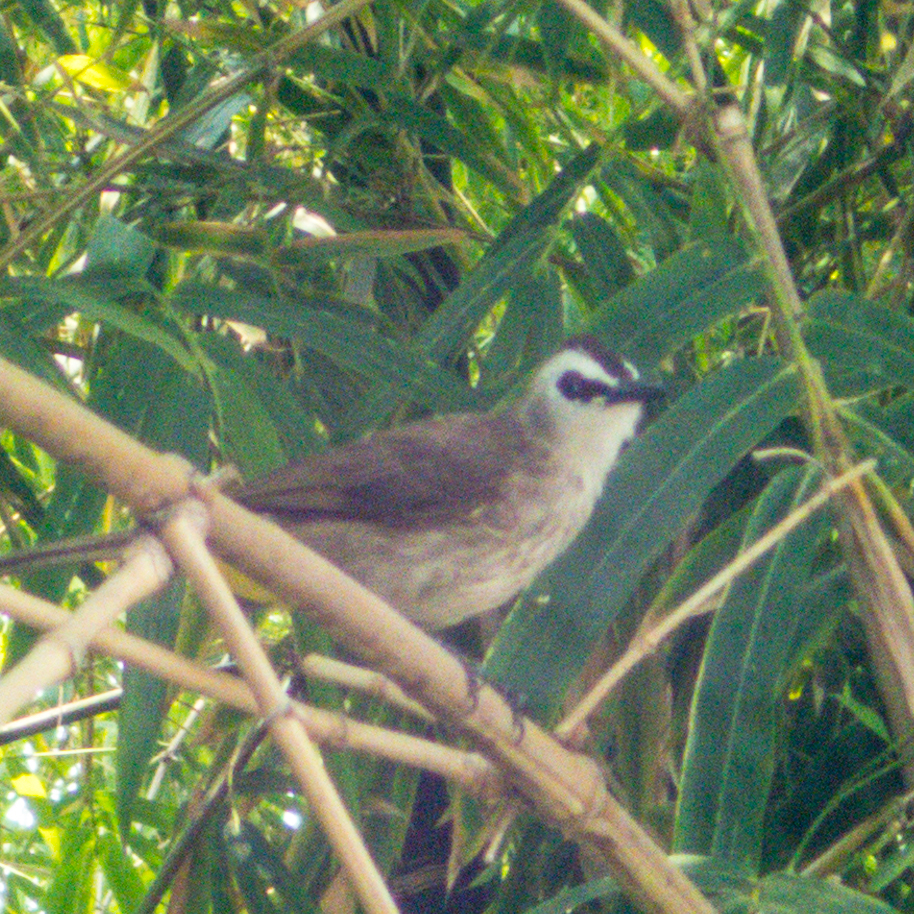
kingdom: Animalia
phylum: Chordata
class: Aves
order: Passeriformes
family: Pycnonotidae
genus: Pycnonotus
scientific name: Pycnonotus goiavier
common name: Yellow-vented bulbul
